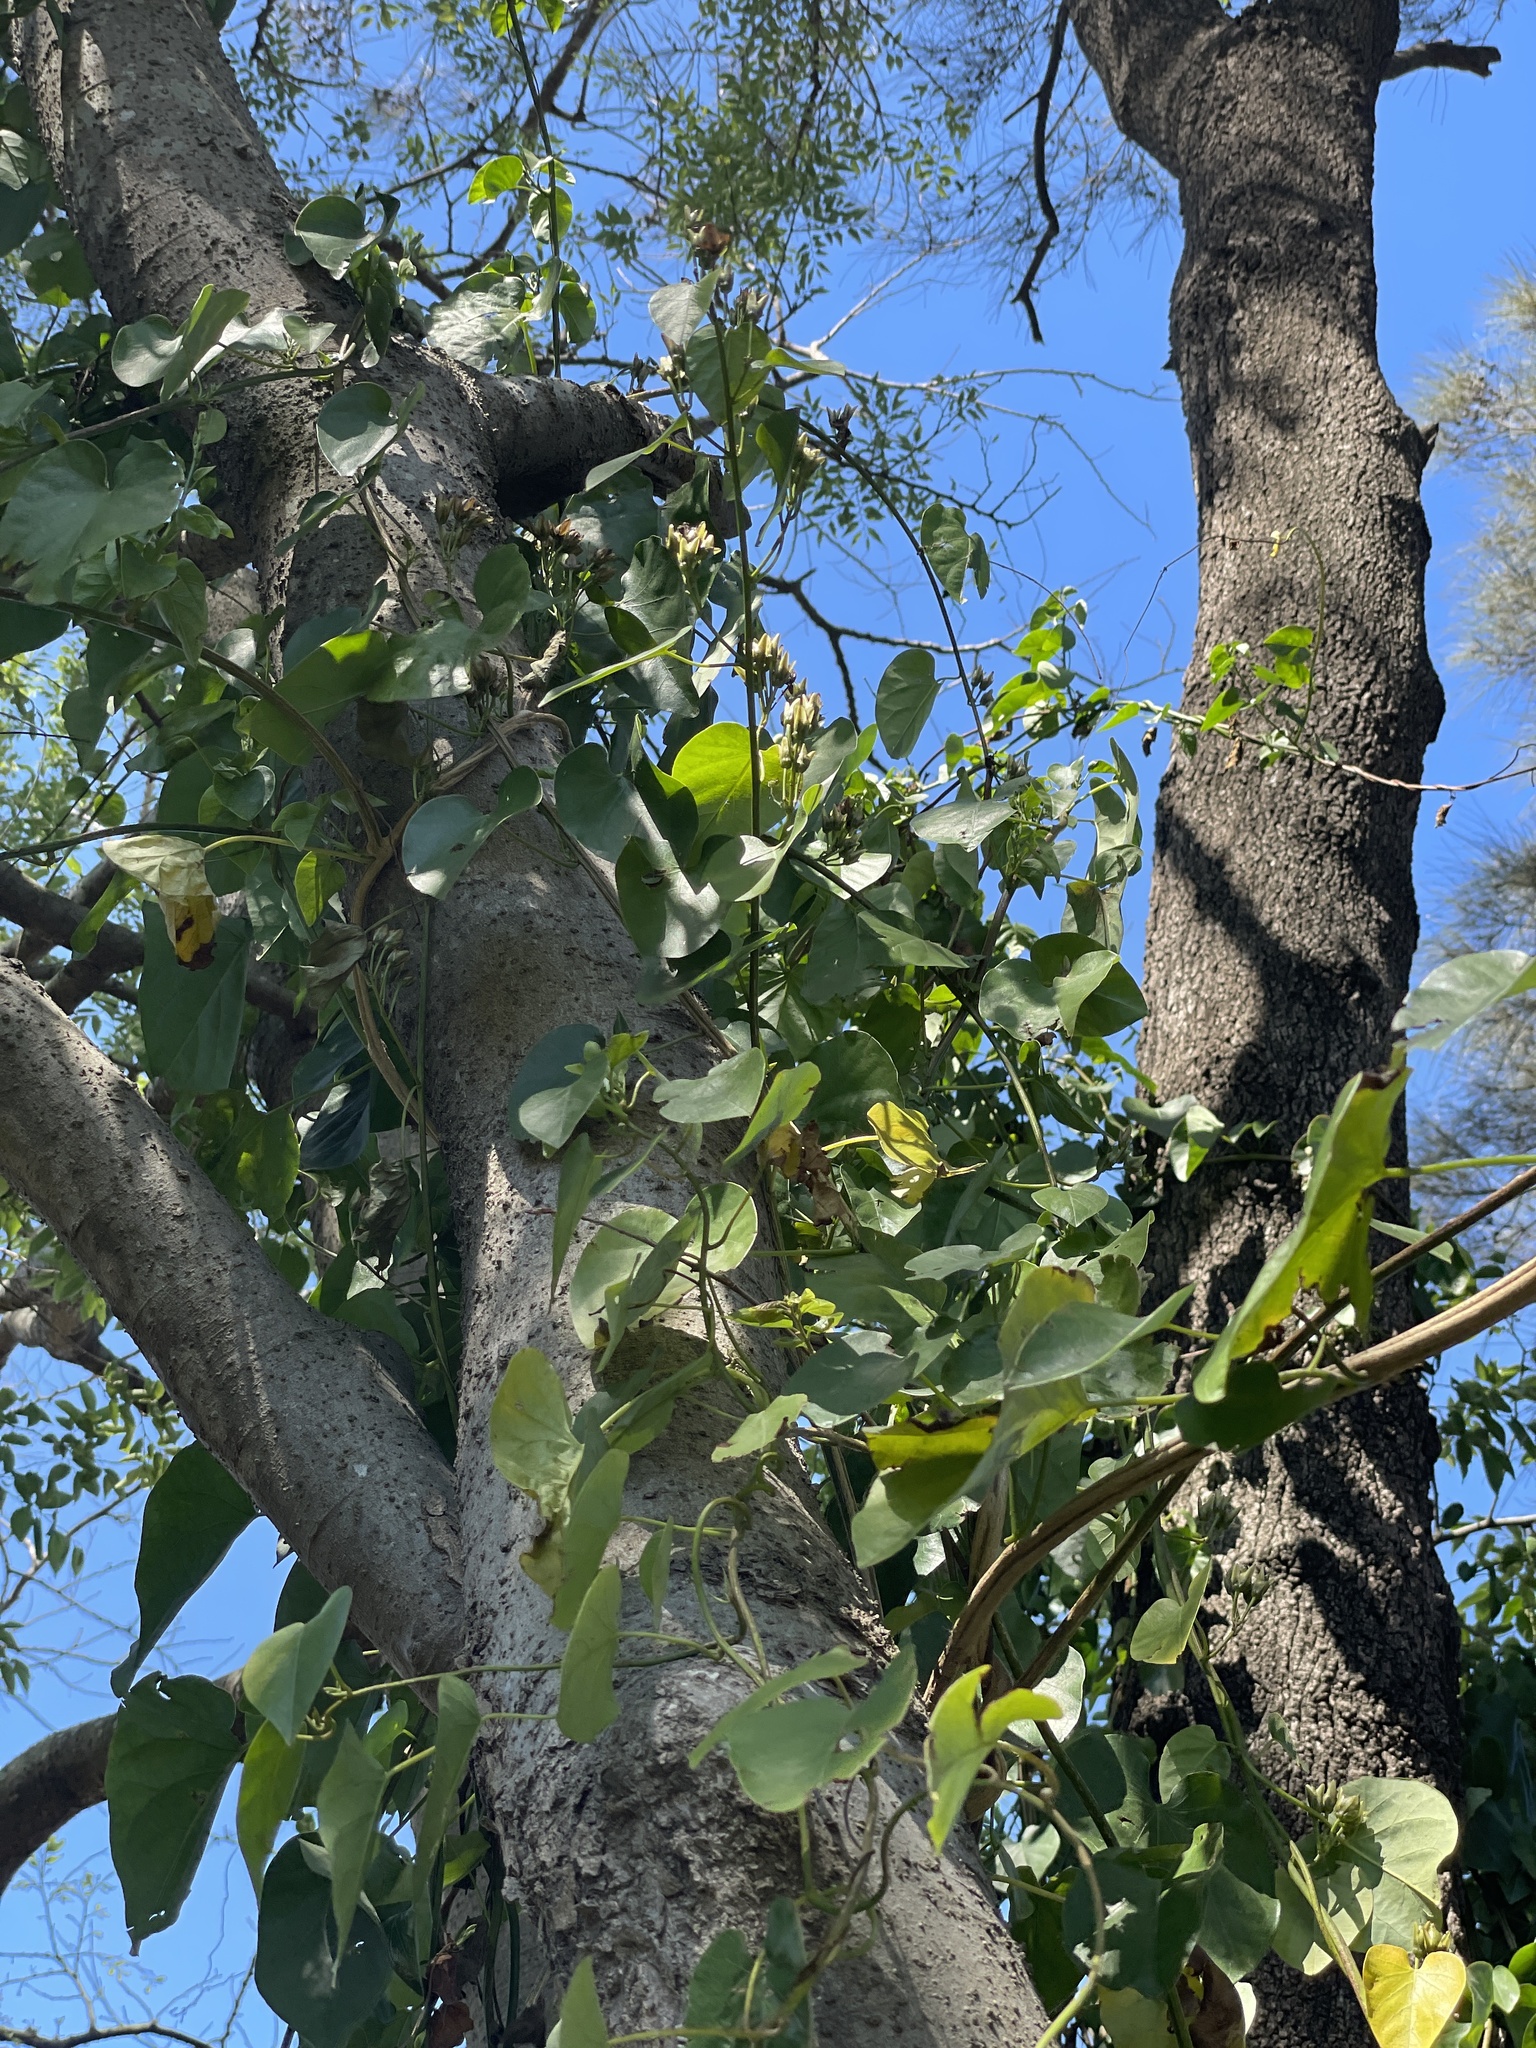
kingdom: Plantae
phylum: Tracheophyta
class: Magnoliopsida
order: Solanales
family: Convolvulaceae
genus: Ipomoea
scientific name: Ipomoea alba
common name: Moonflower
